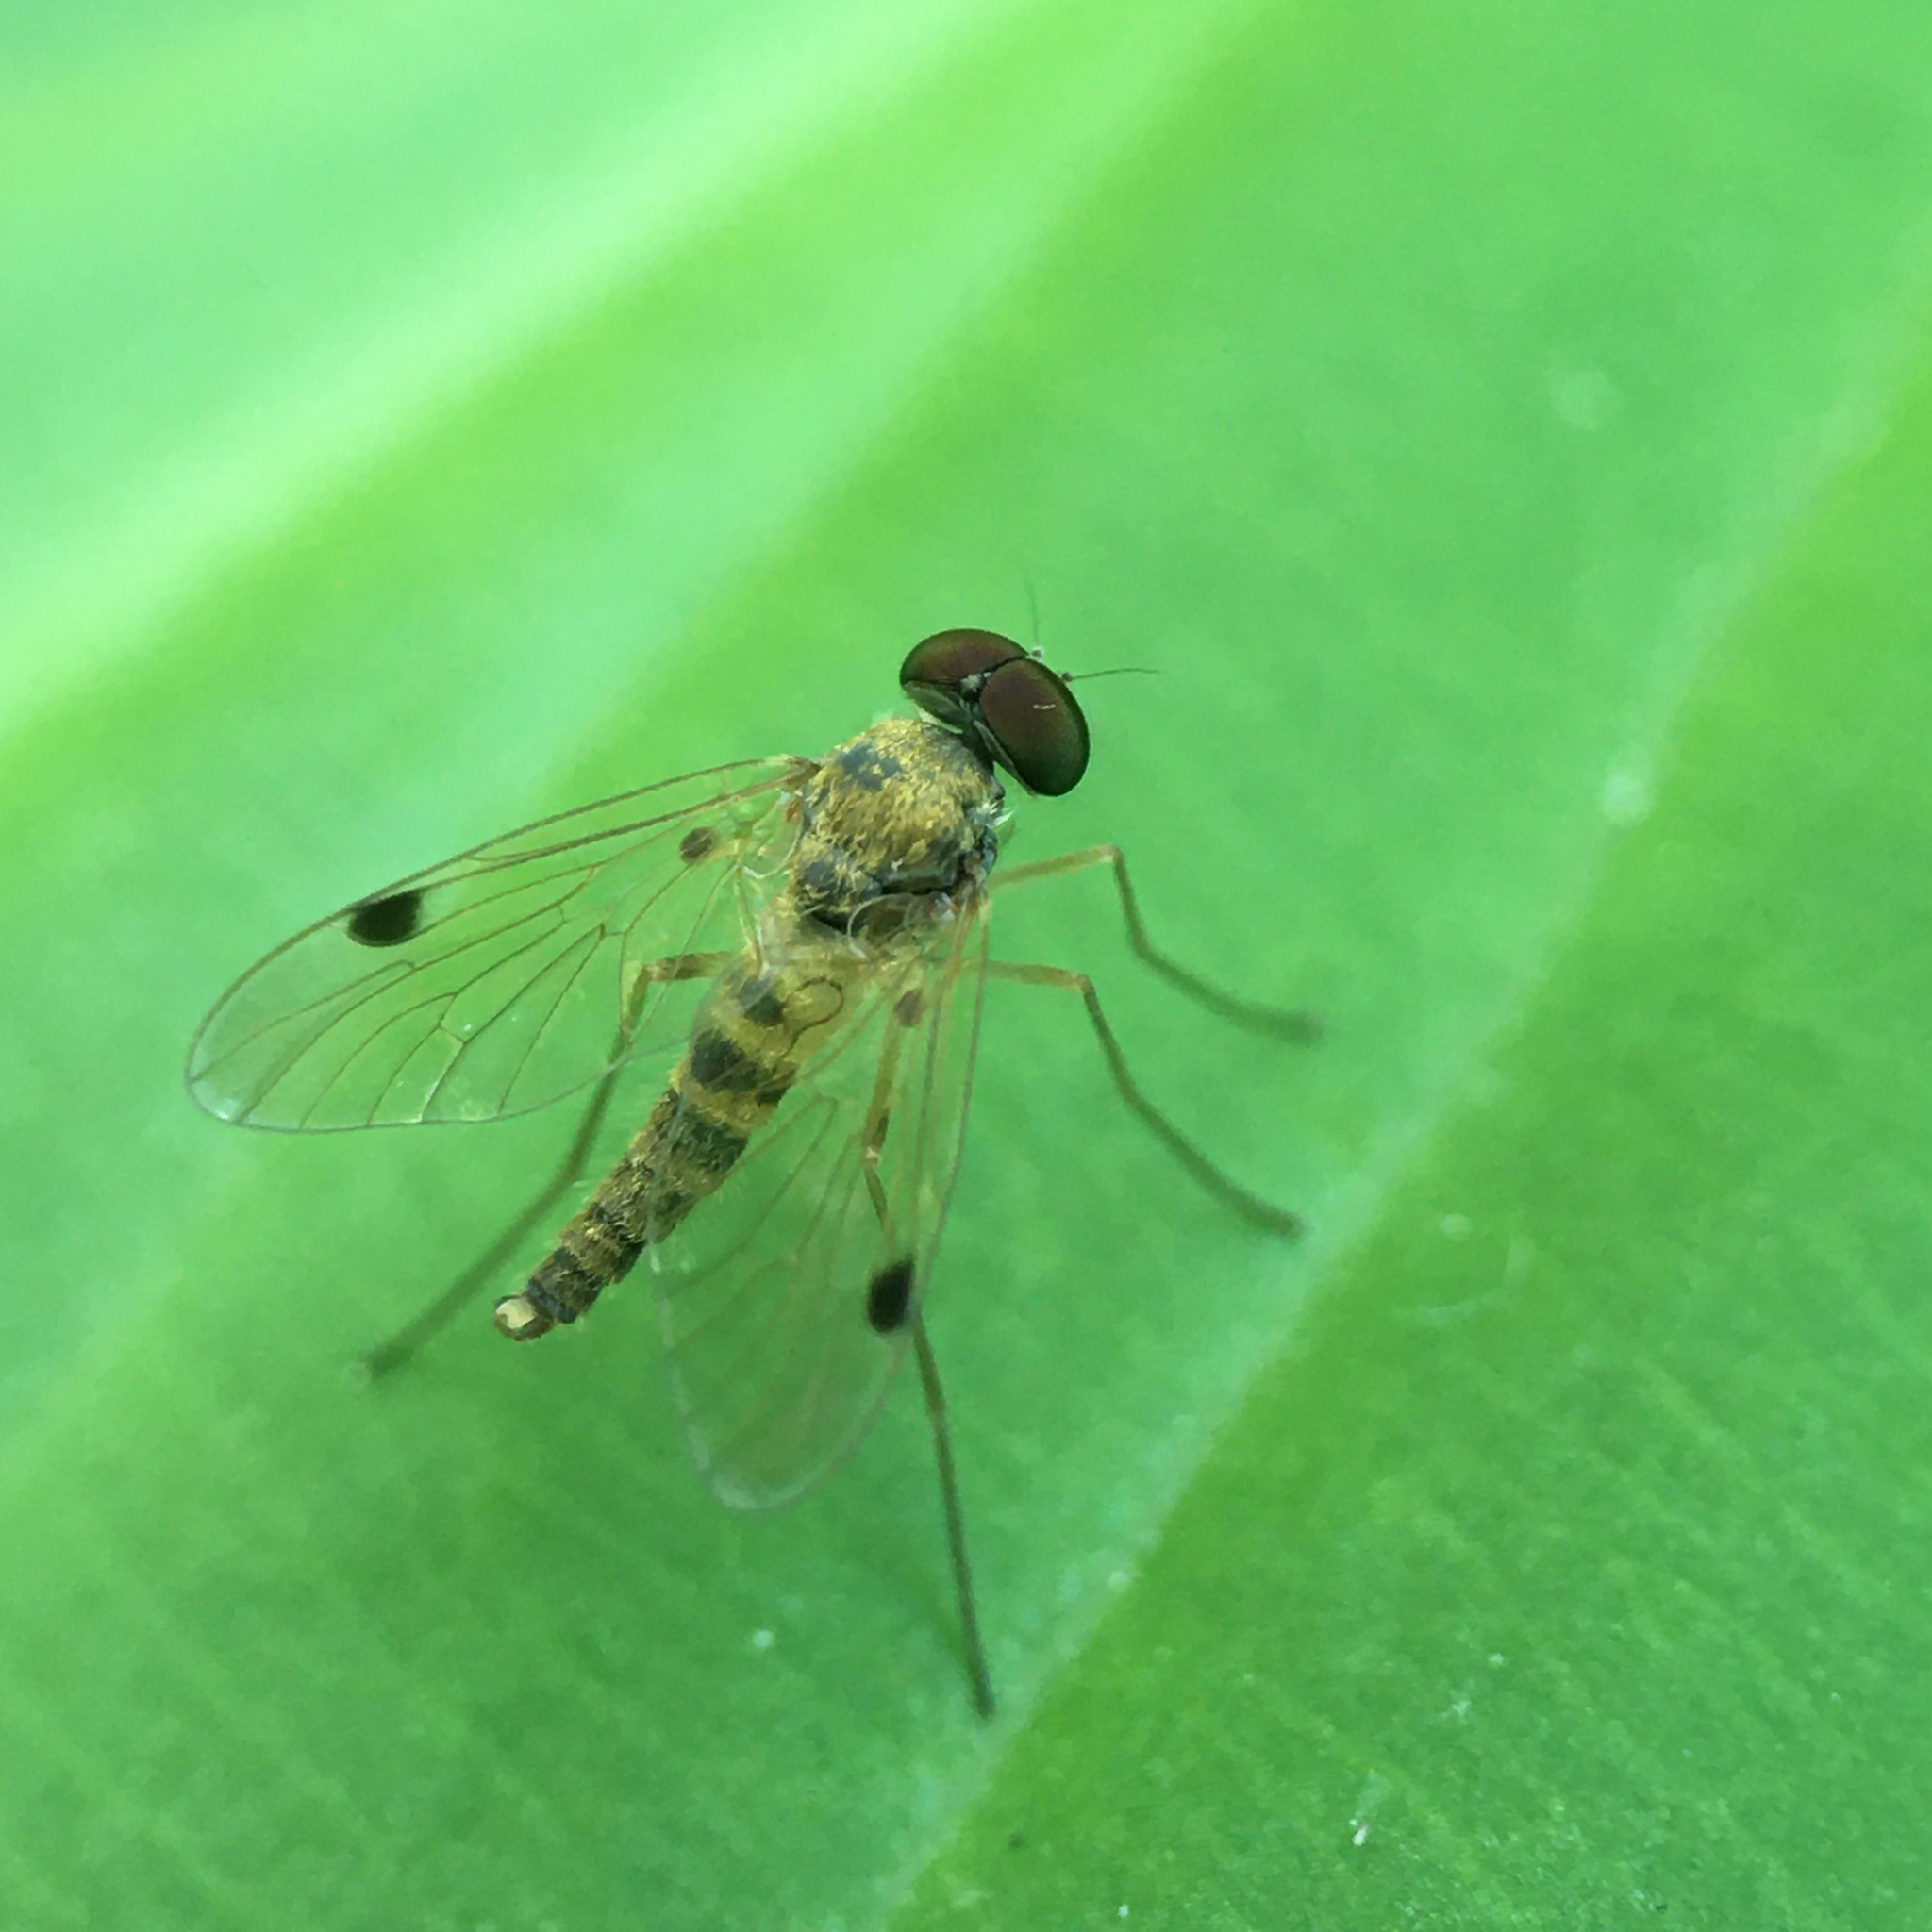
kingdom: Animalia
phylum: Arthropoda
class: Insecta
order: Diptera
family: Rhagionidae
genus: Chrysopilus
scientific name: Chrysopilus modestus
